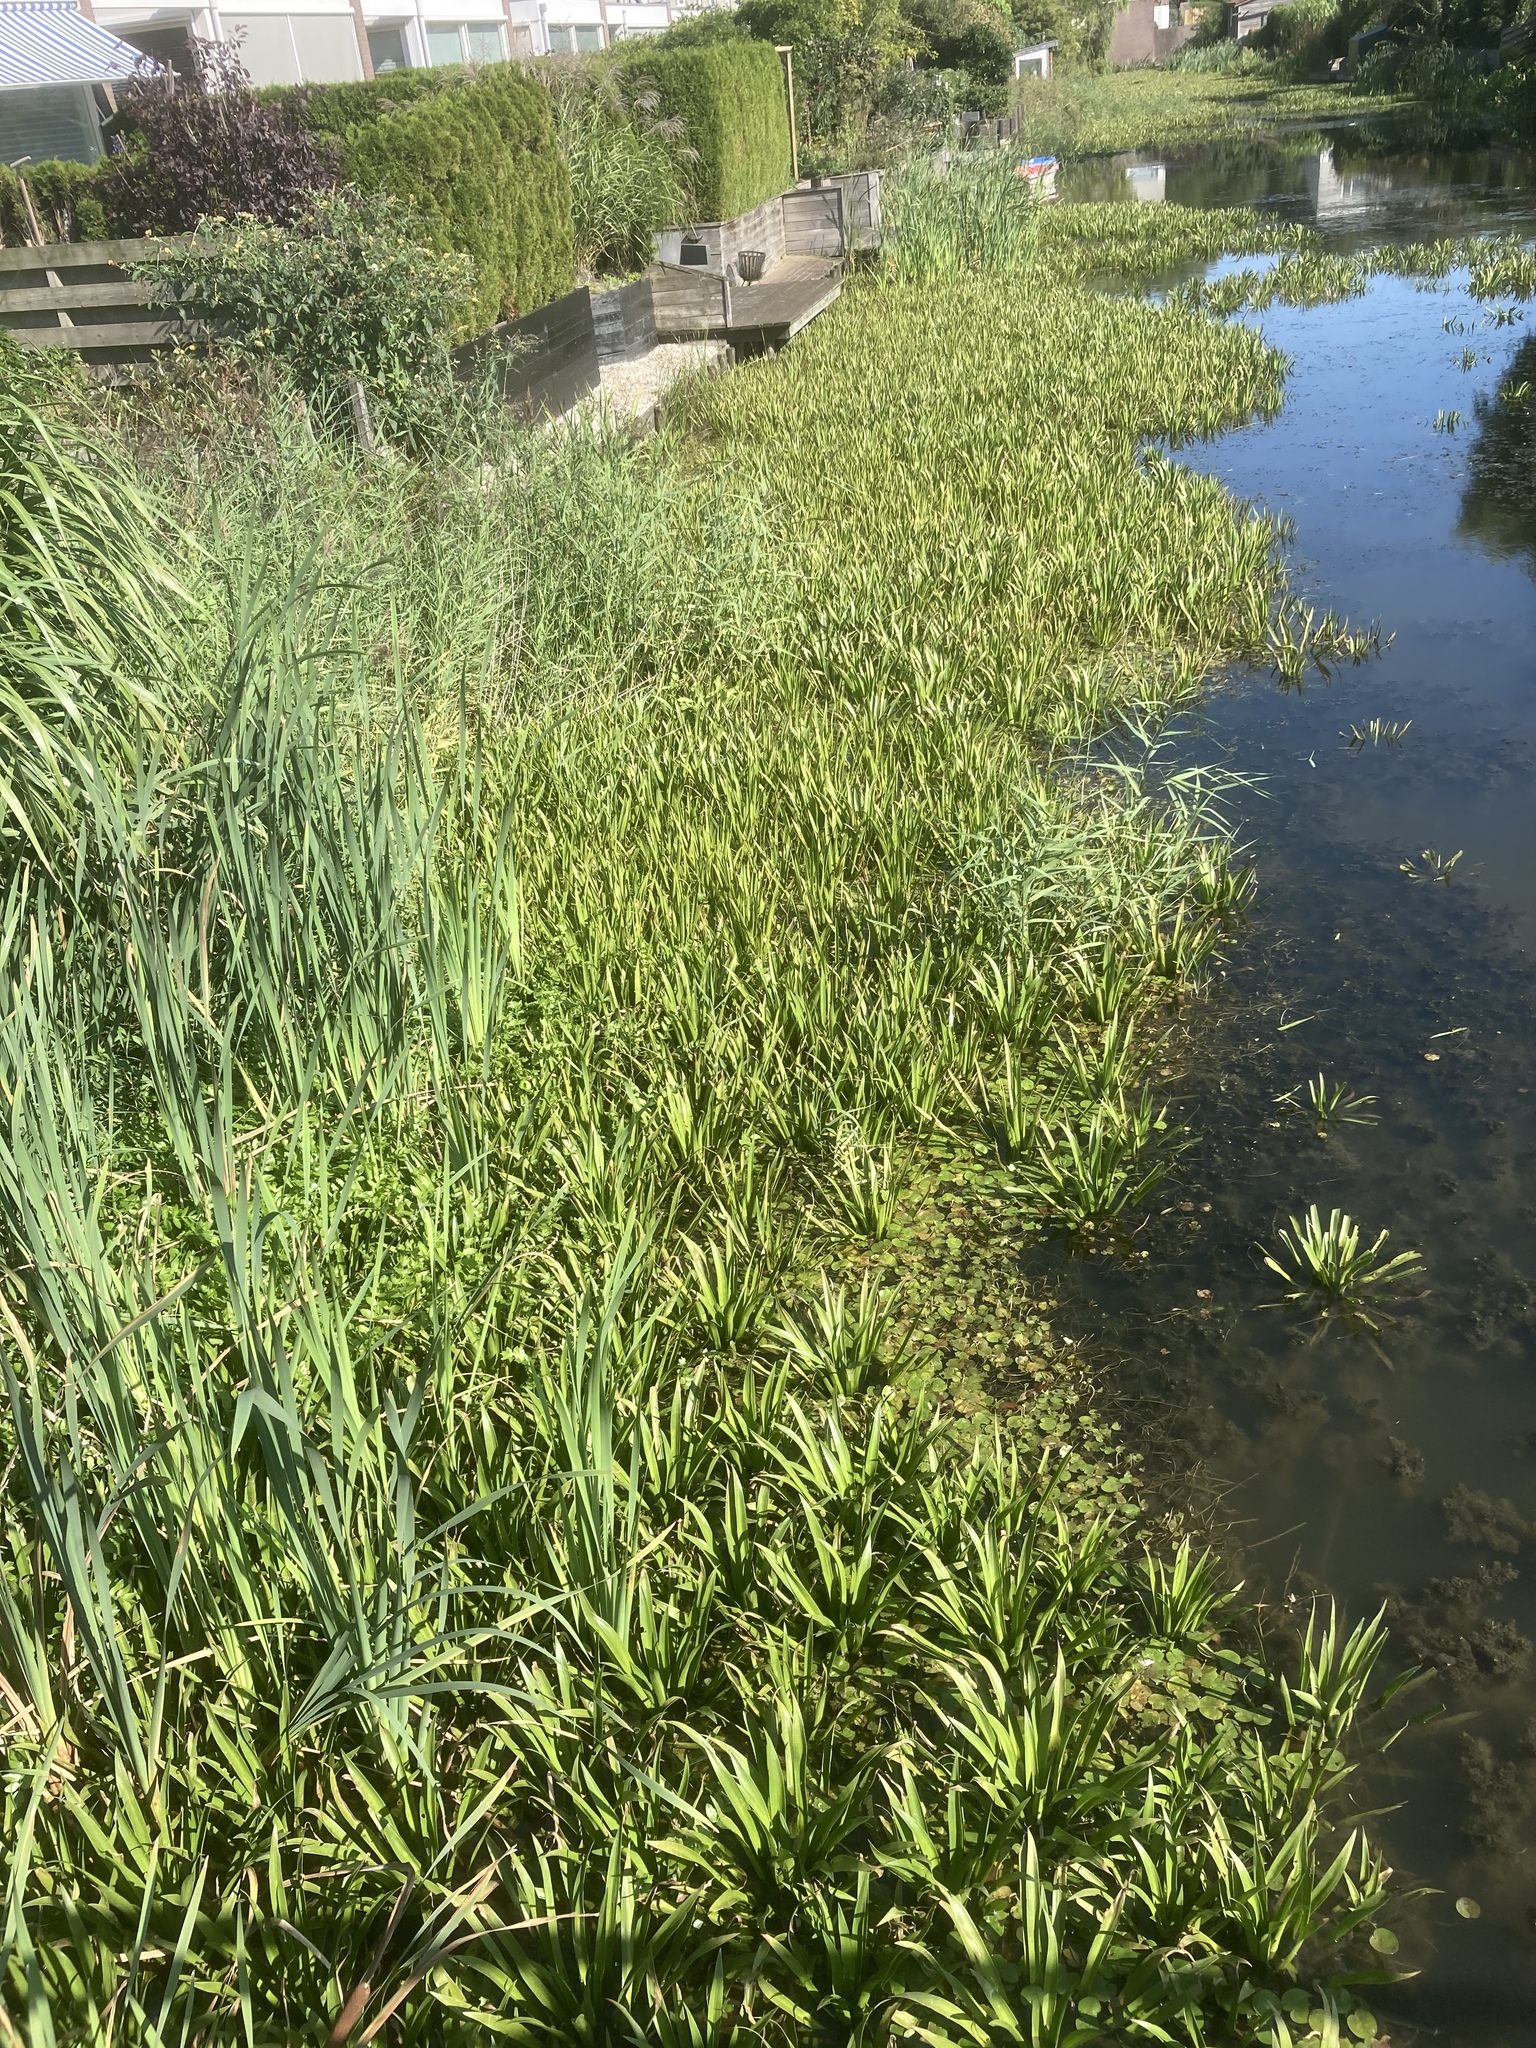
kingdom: Plantae
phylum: Tracheophyta
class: Liliopsida
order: Alismatales
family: Hydrocharitaceae
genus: Stratiotes
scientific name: Stratiotes aloides
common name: Water-soldier
